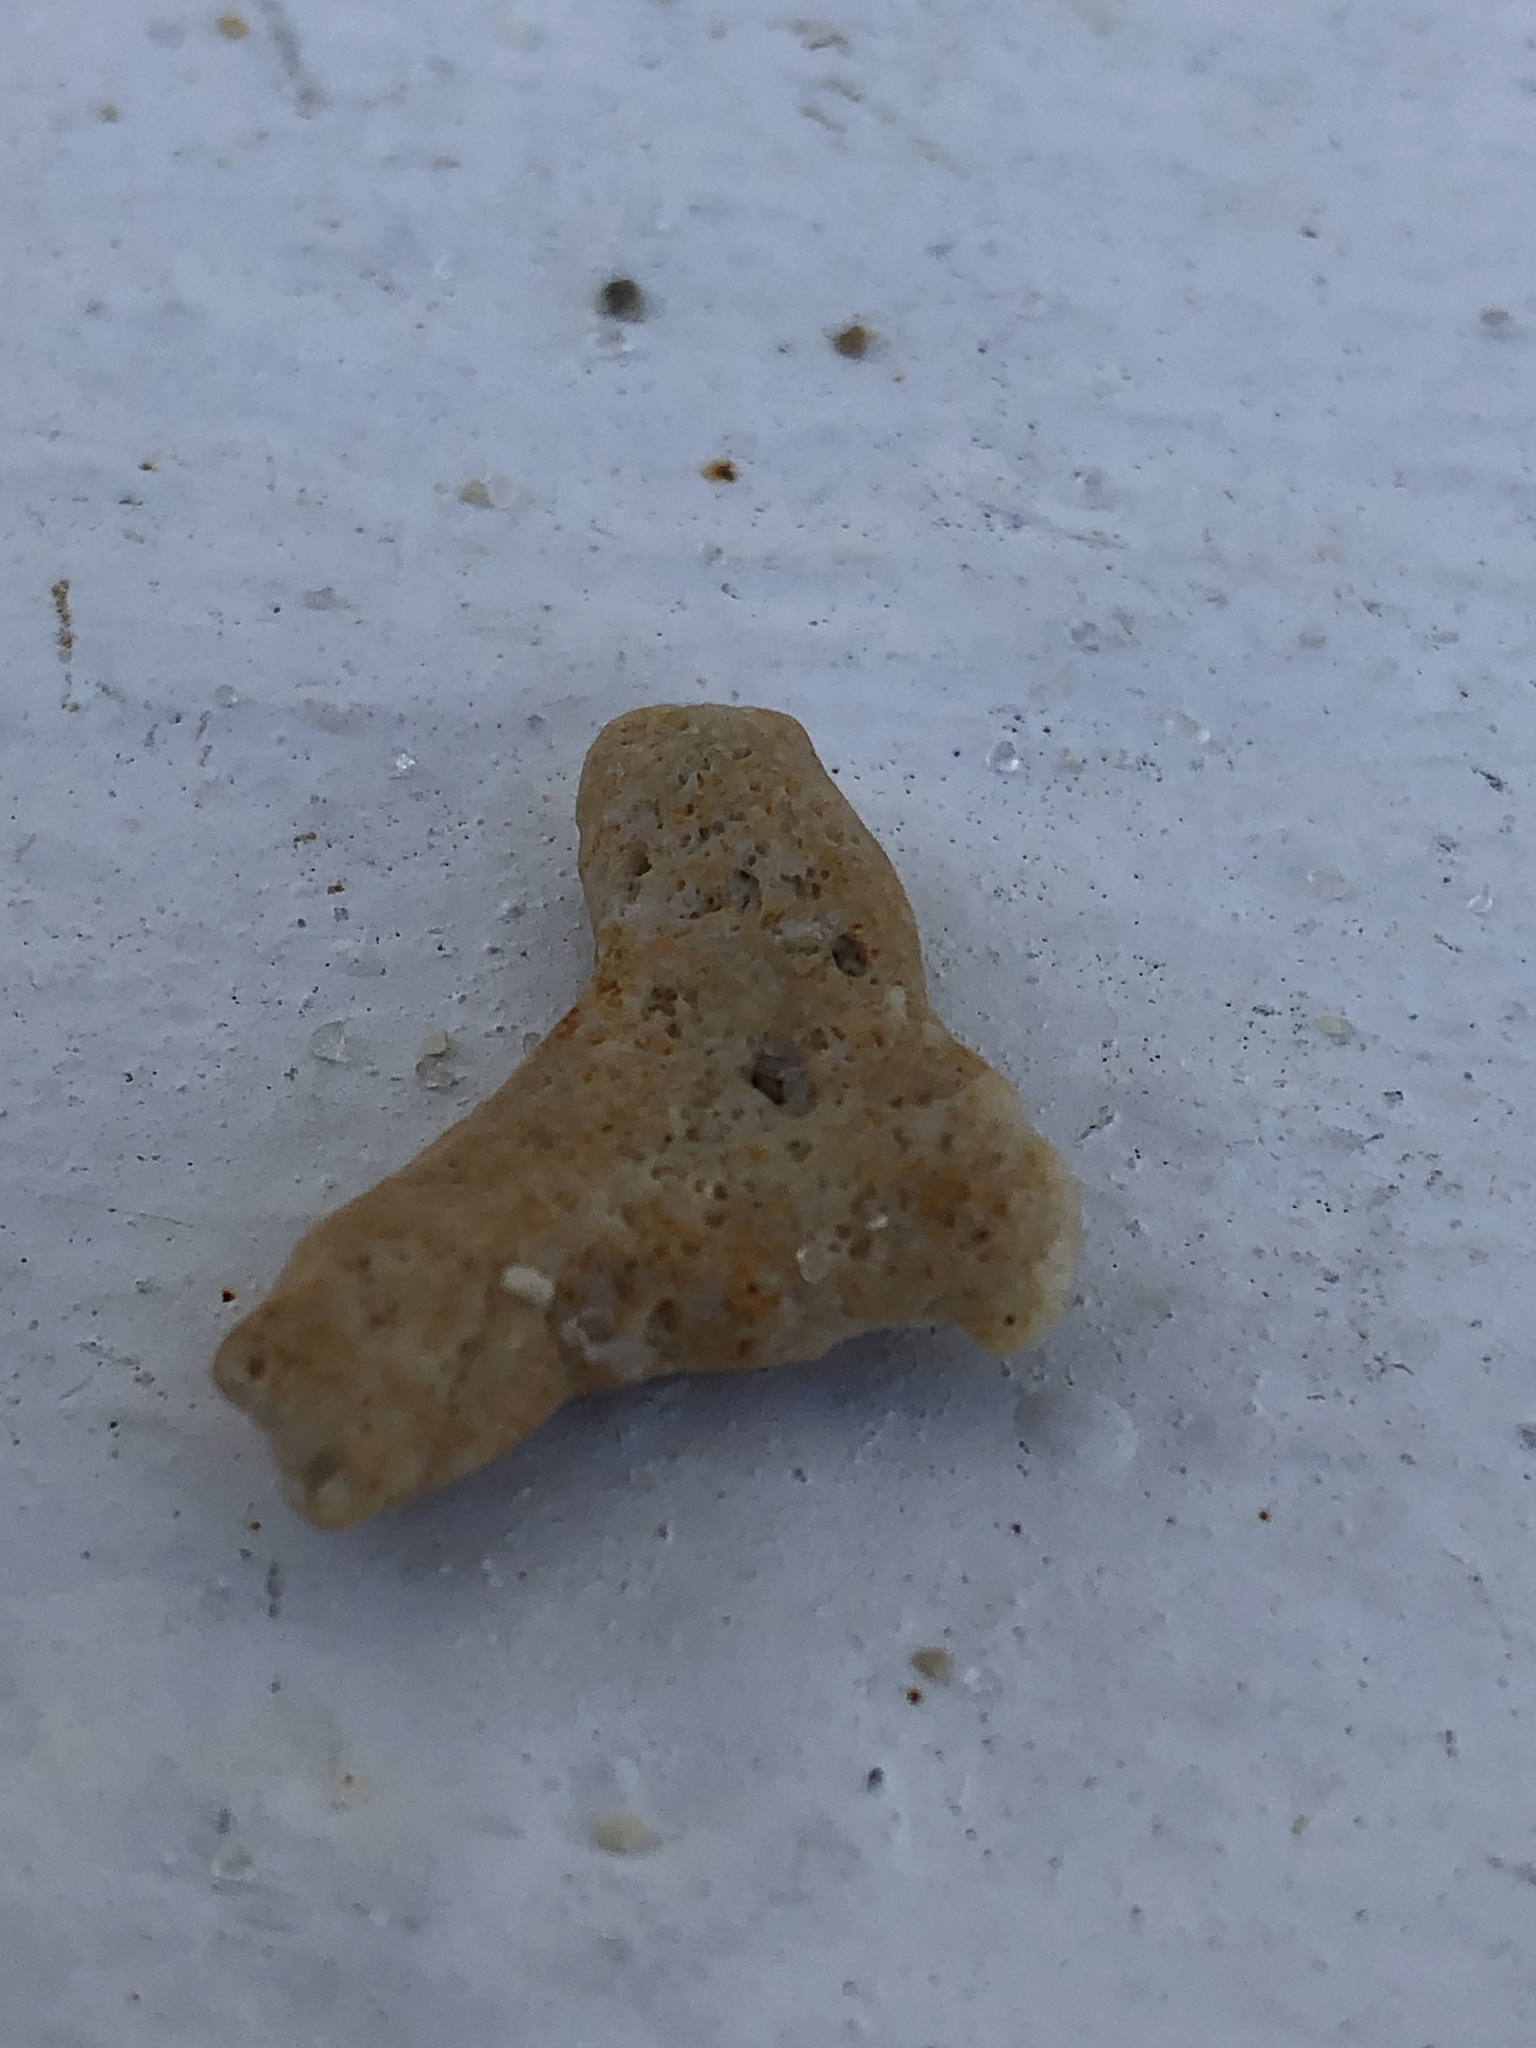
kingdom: Animalia
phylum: Porifera
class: Demospongiae
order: Haplosclerida
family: Niphatidae
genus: Amphimedon
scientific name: Amphimedon compressa
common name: Red sponge
